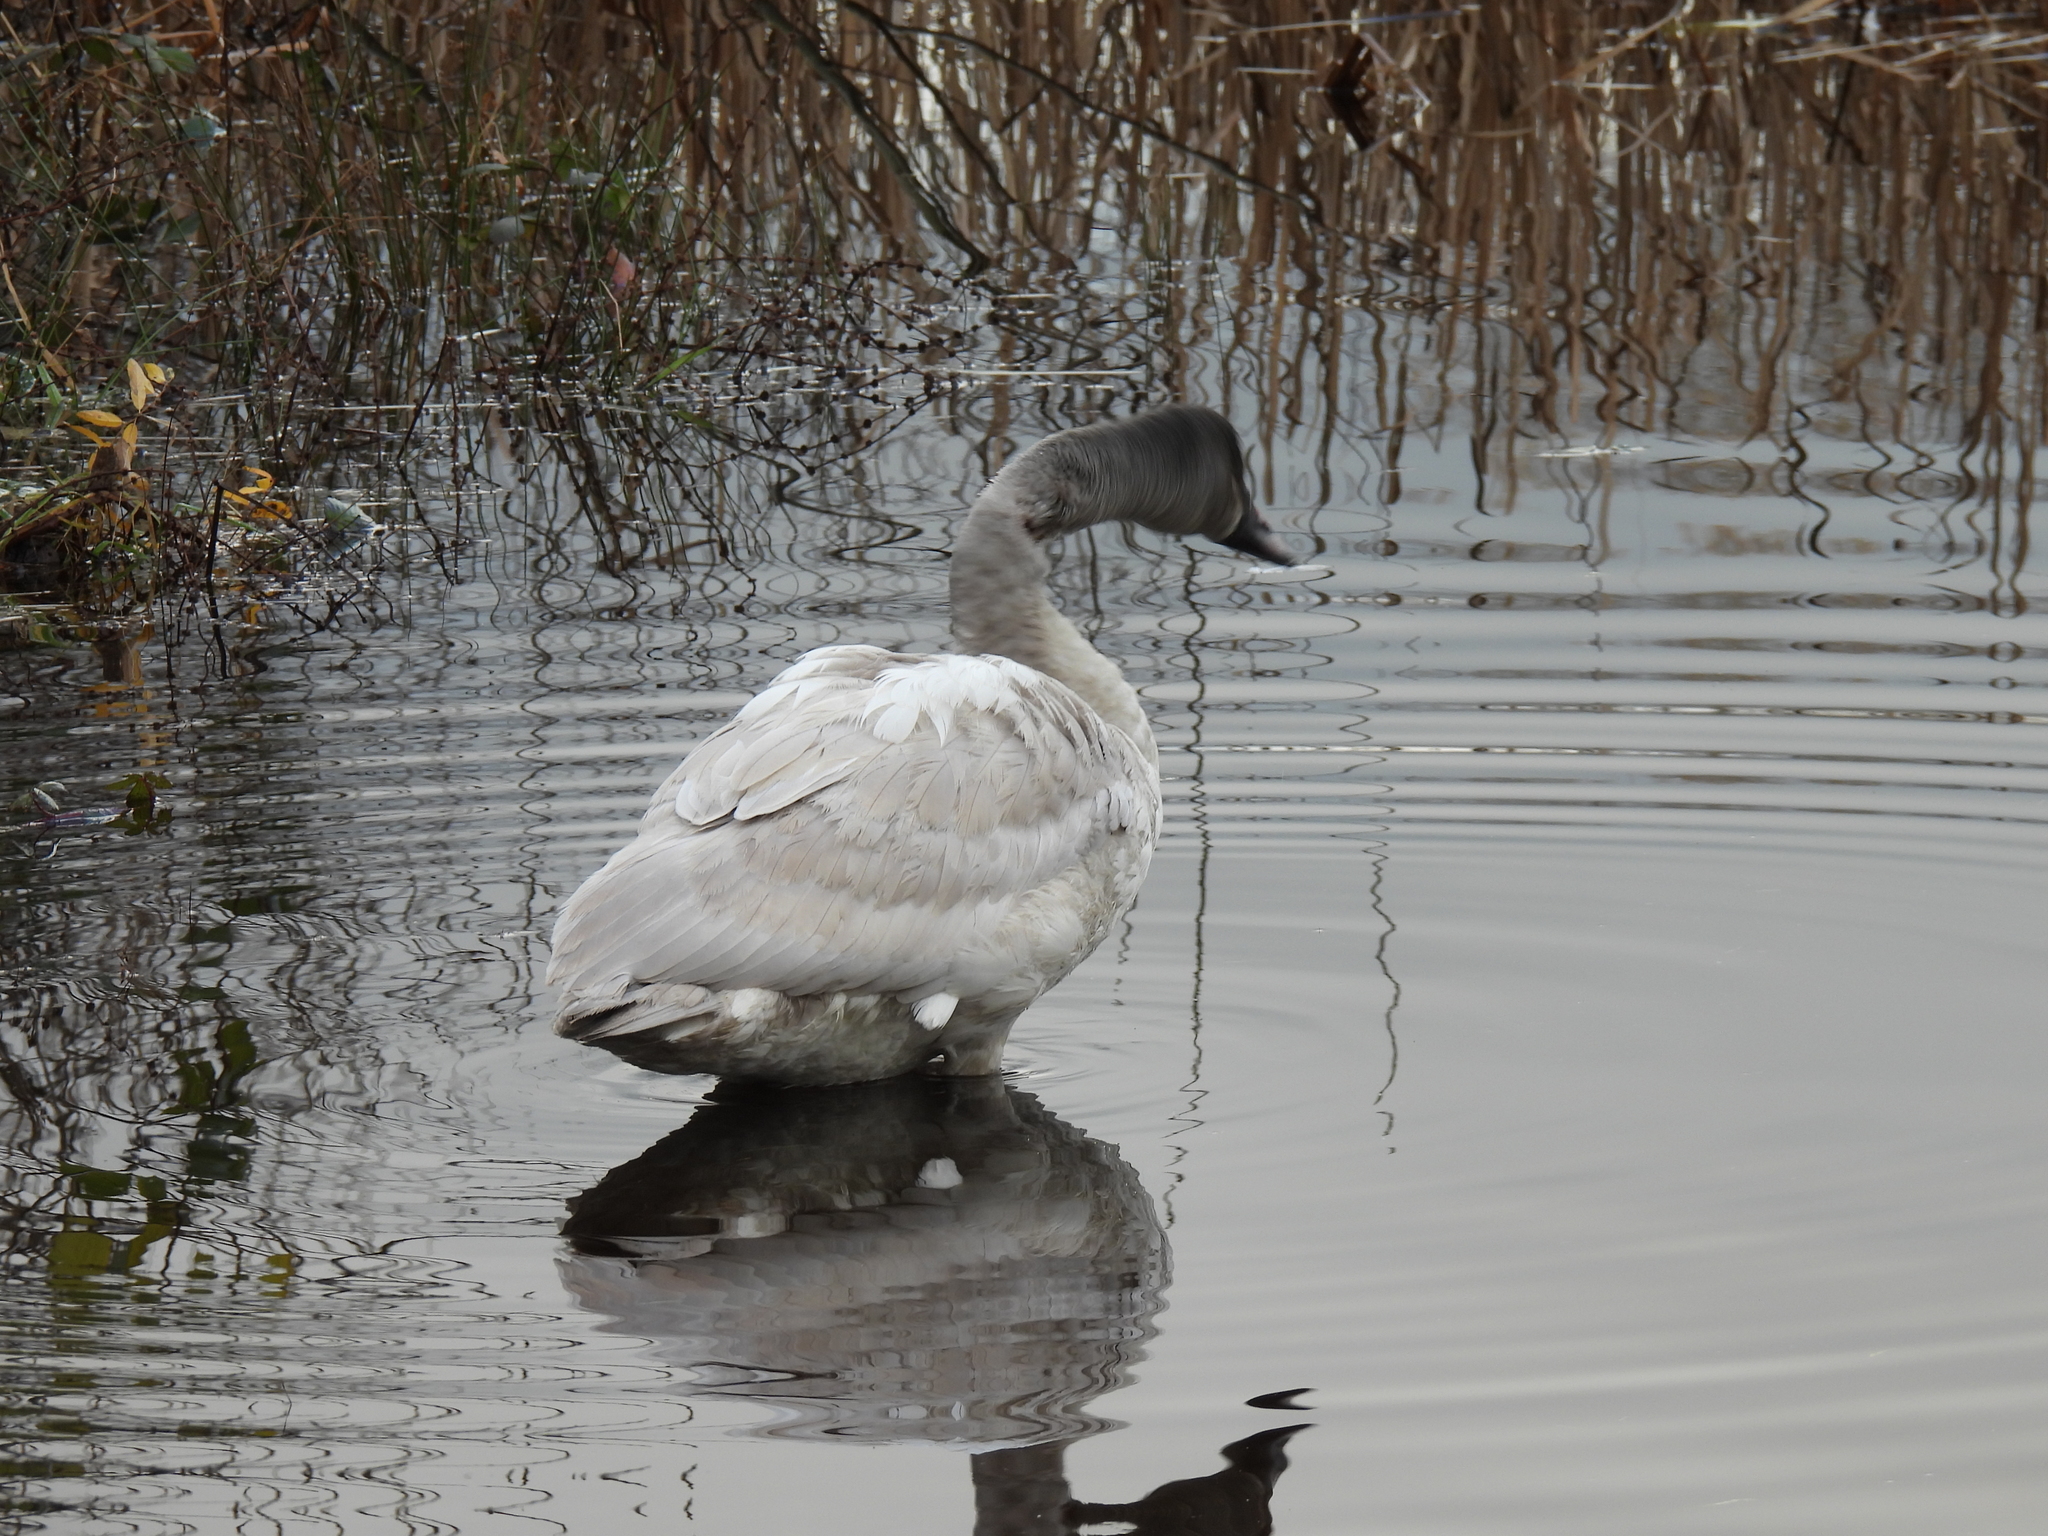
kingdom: Animalia
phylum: Chordata
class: Aves
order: Anseriformes
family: Anatidae
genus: Cygnus
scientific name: Cygnus buccinator
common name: Trumpeter swan
